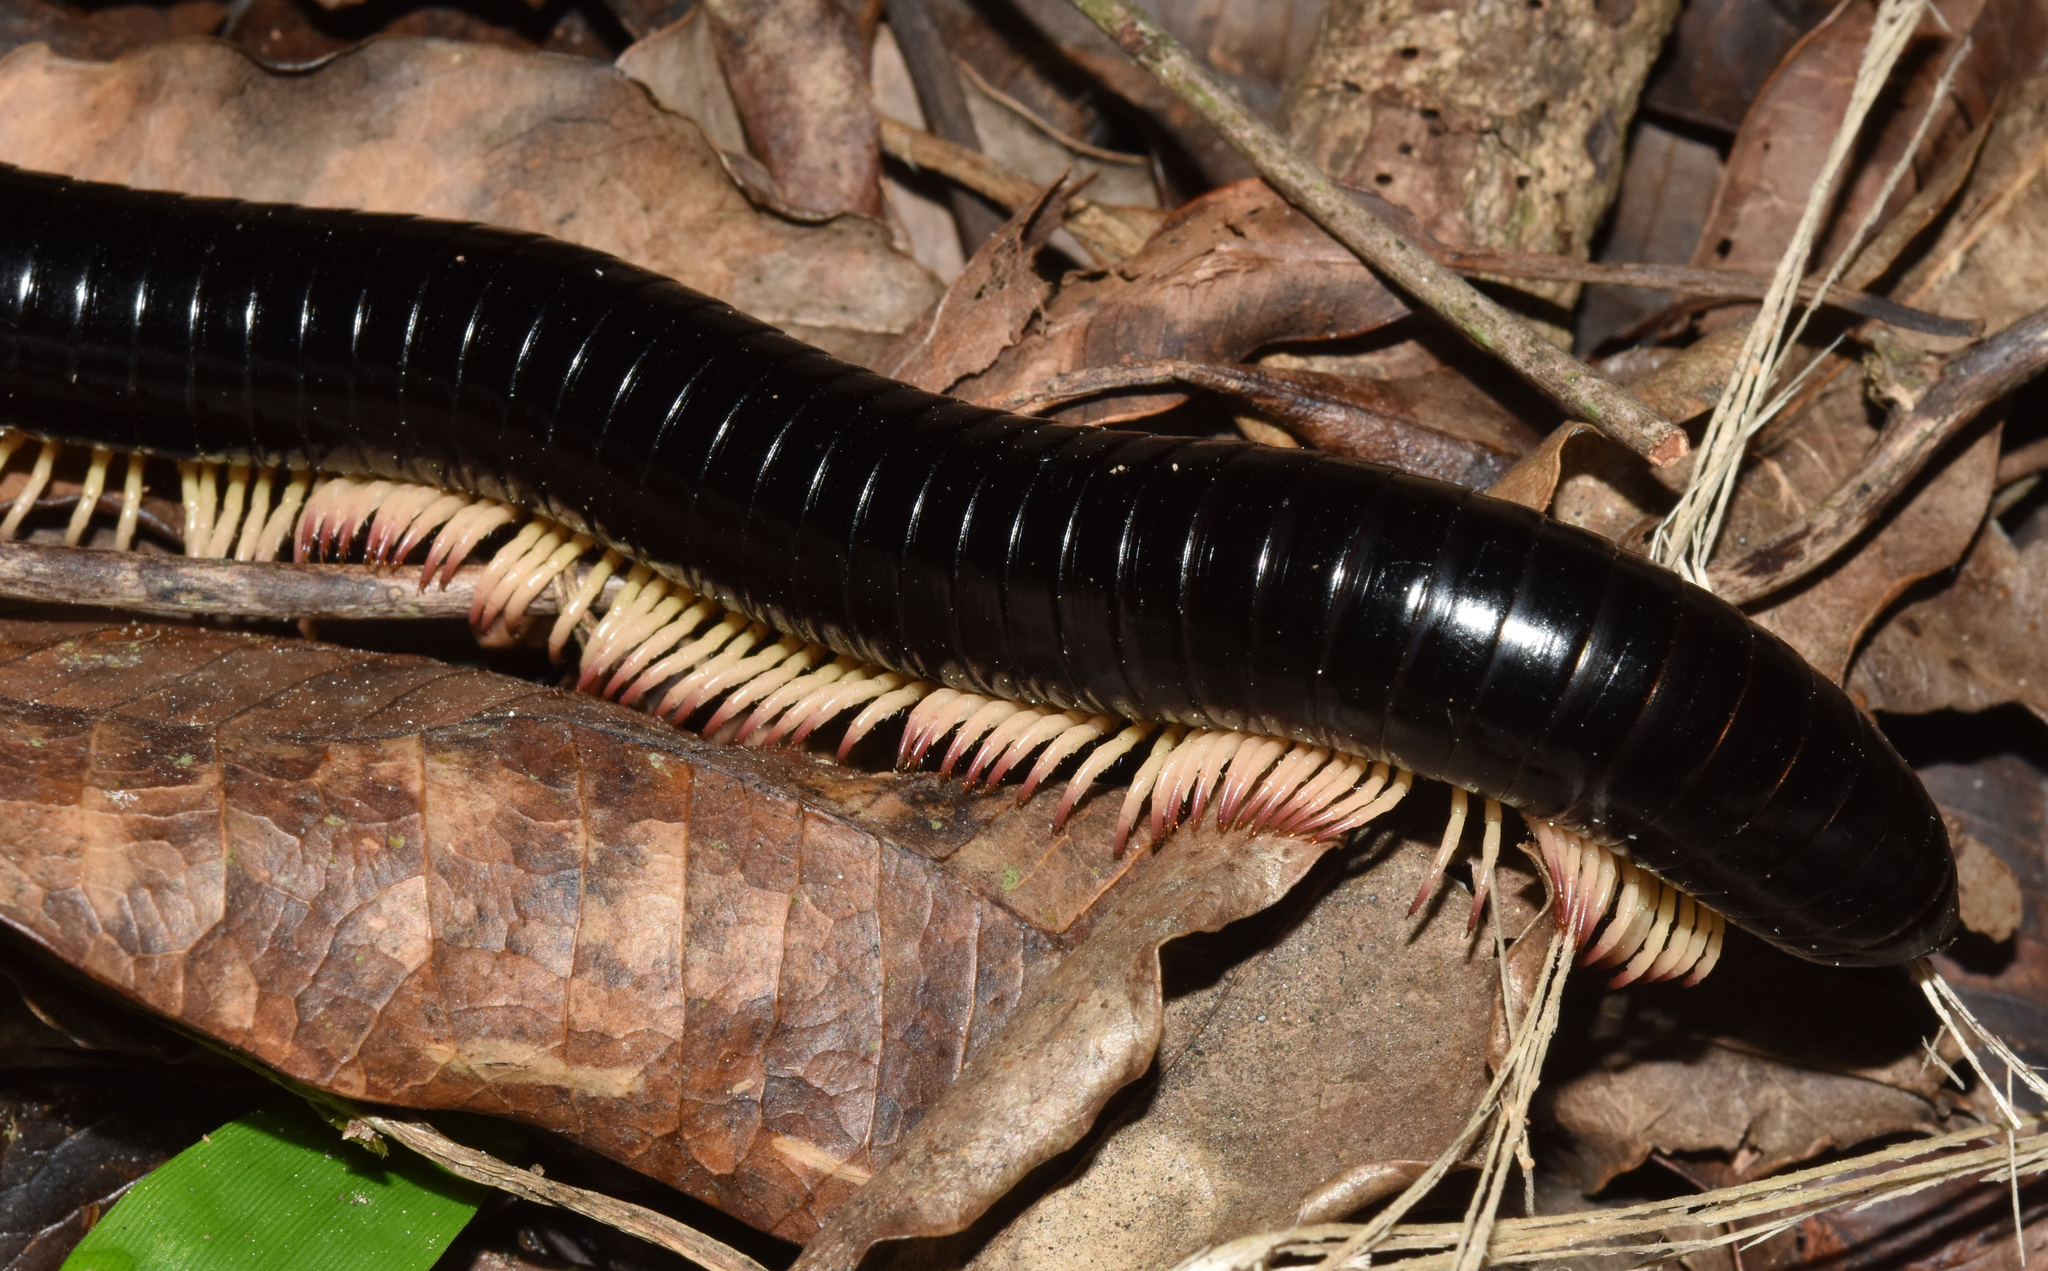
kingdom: Animalia
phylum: Arthropoda
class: Diplopoda
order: Spirostreptida
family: Spirostreptidae
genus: Doratogonus
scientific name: Doratogonus rubipodus
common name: Ruby-footed black millipede
